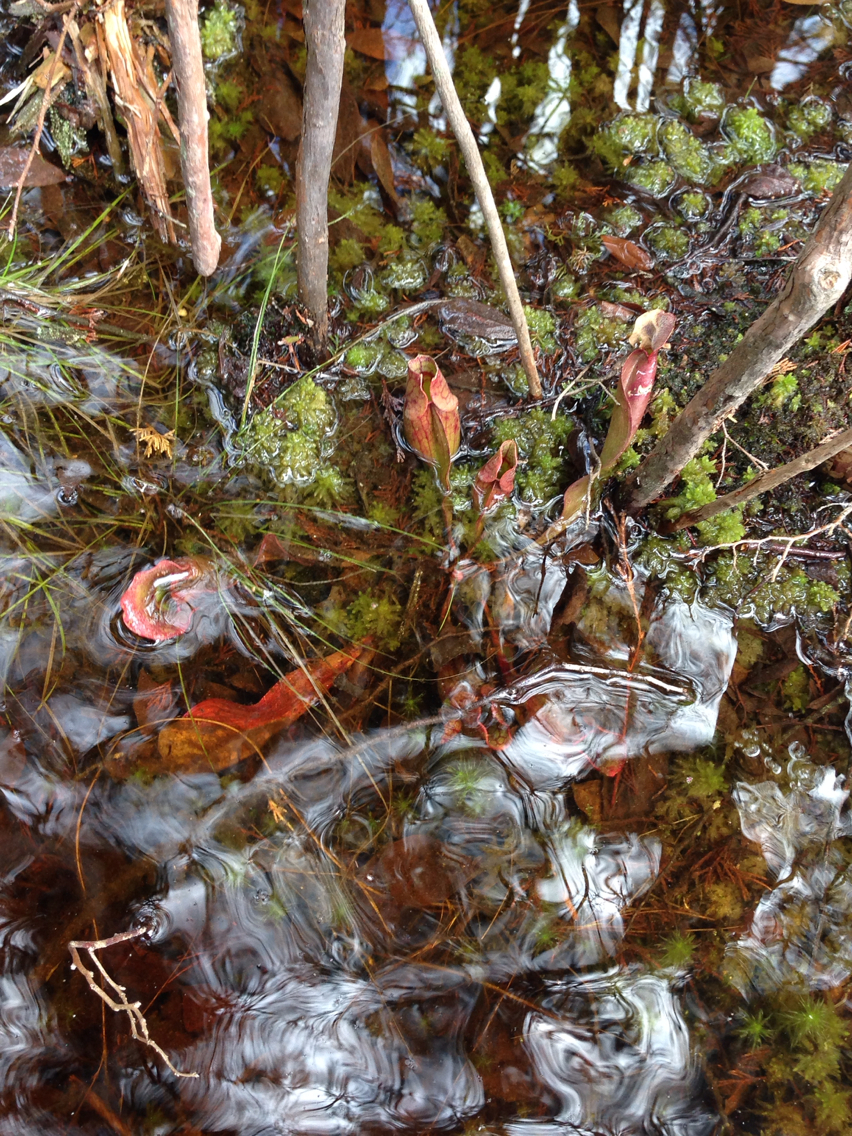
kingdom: Plantae
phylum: Tracheophyta
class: Magnoliopsida
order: Ericales
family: Sarraceniaceae
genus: Sarracenia
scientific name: Sarracenia purpurea
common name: Pitcherplant
